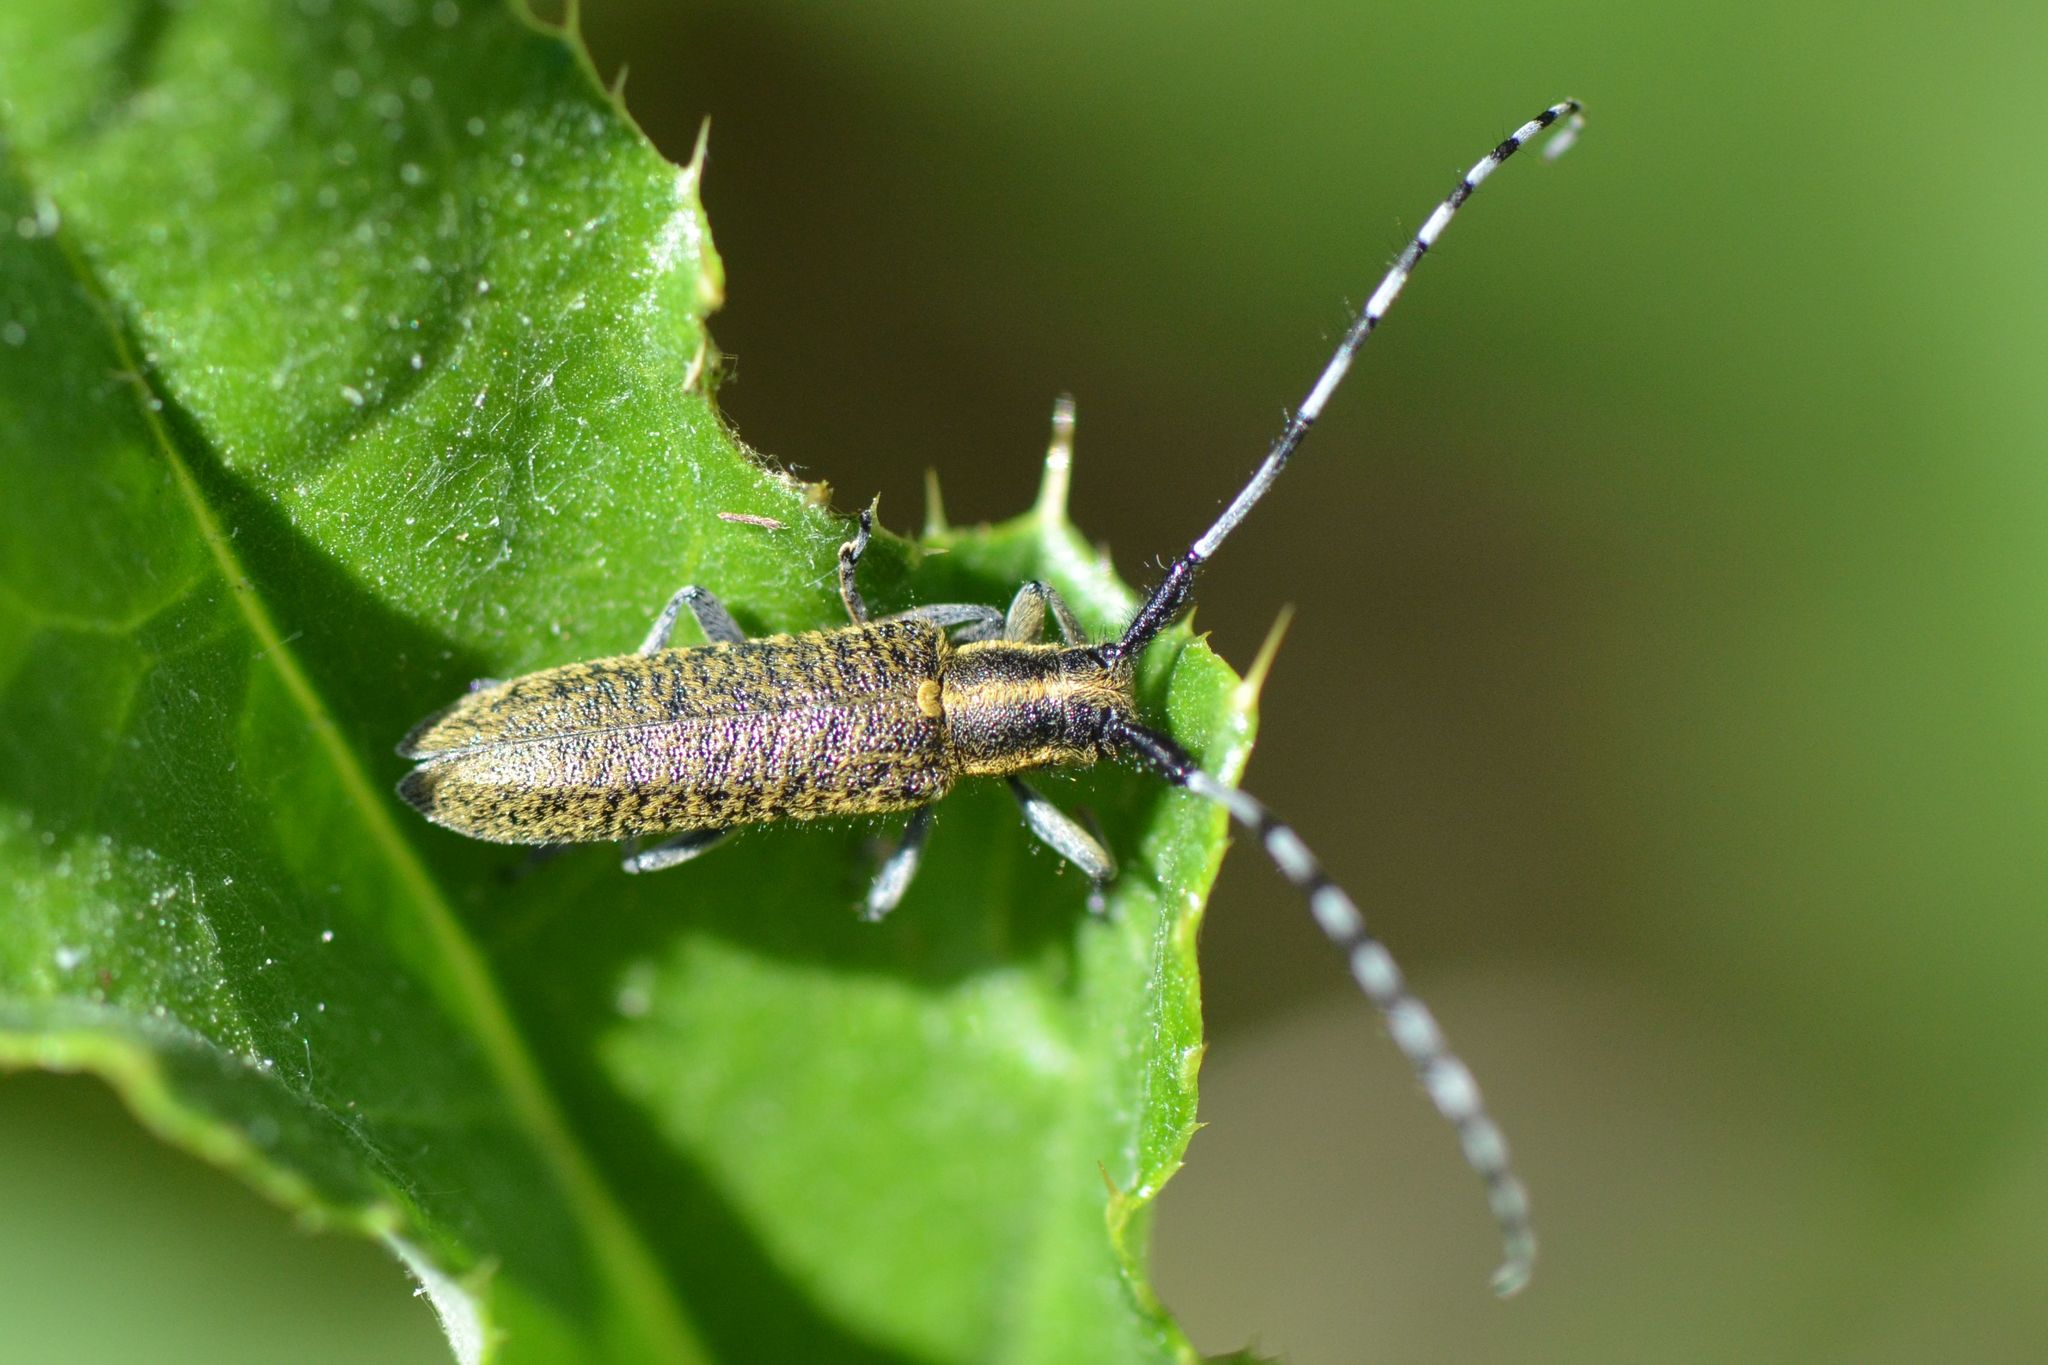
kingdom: Animalia
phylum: Arthropoda
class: Insecta
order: Coleoptera
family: Cerambycidae
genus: Agapanthia
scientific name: Agapanthia villosoviridescens
